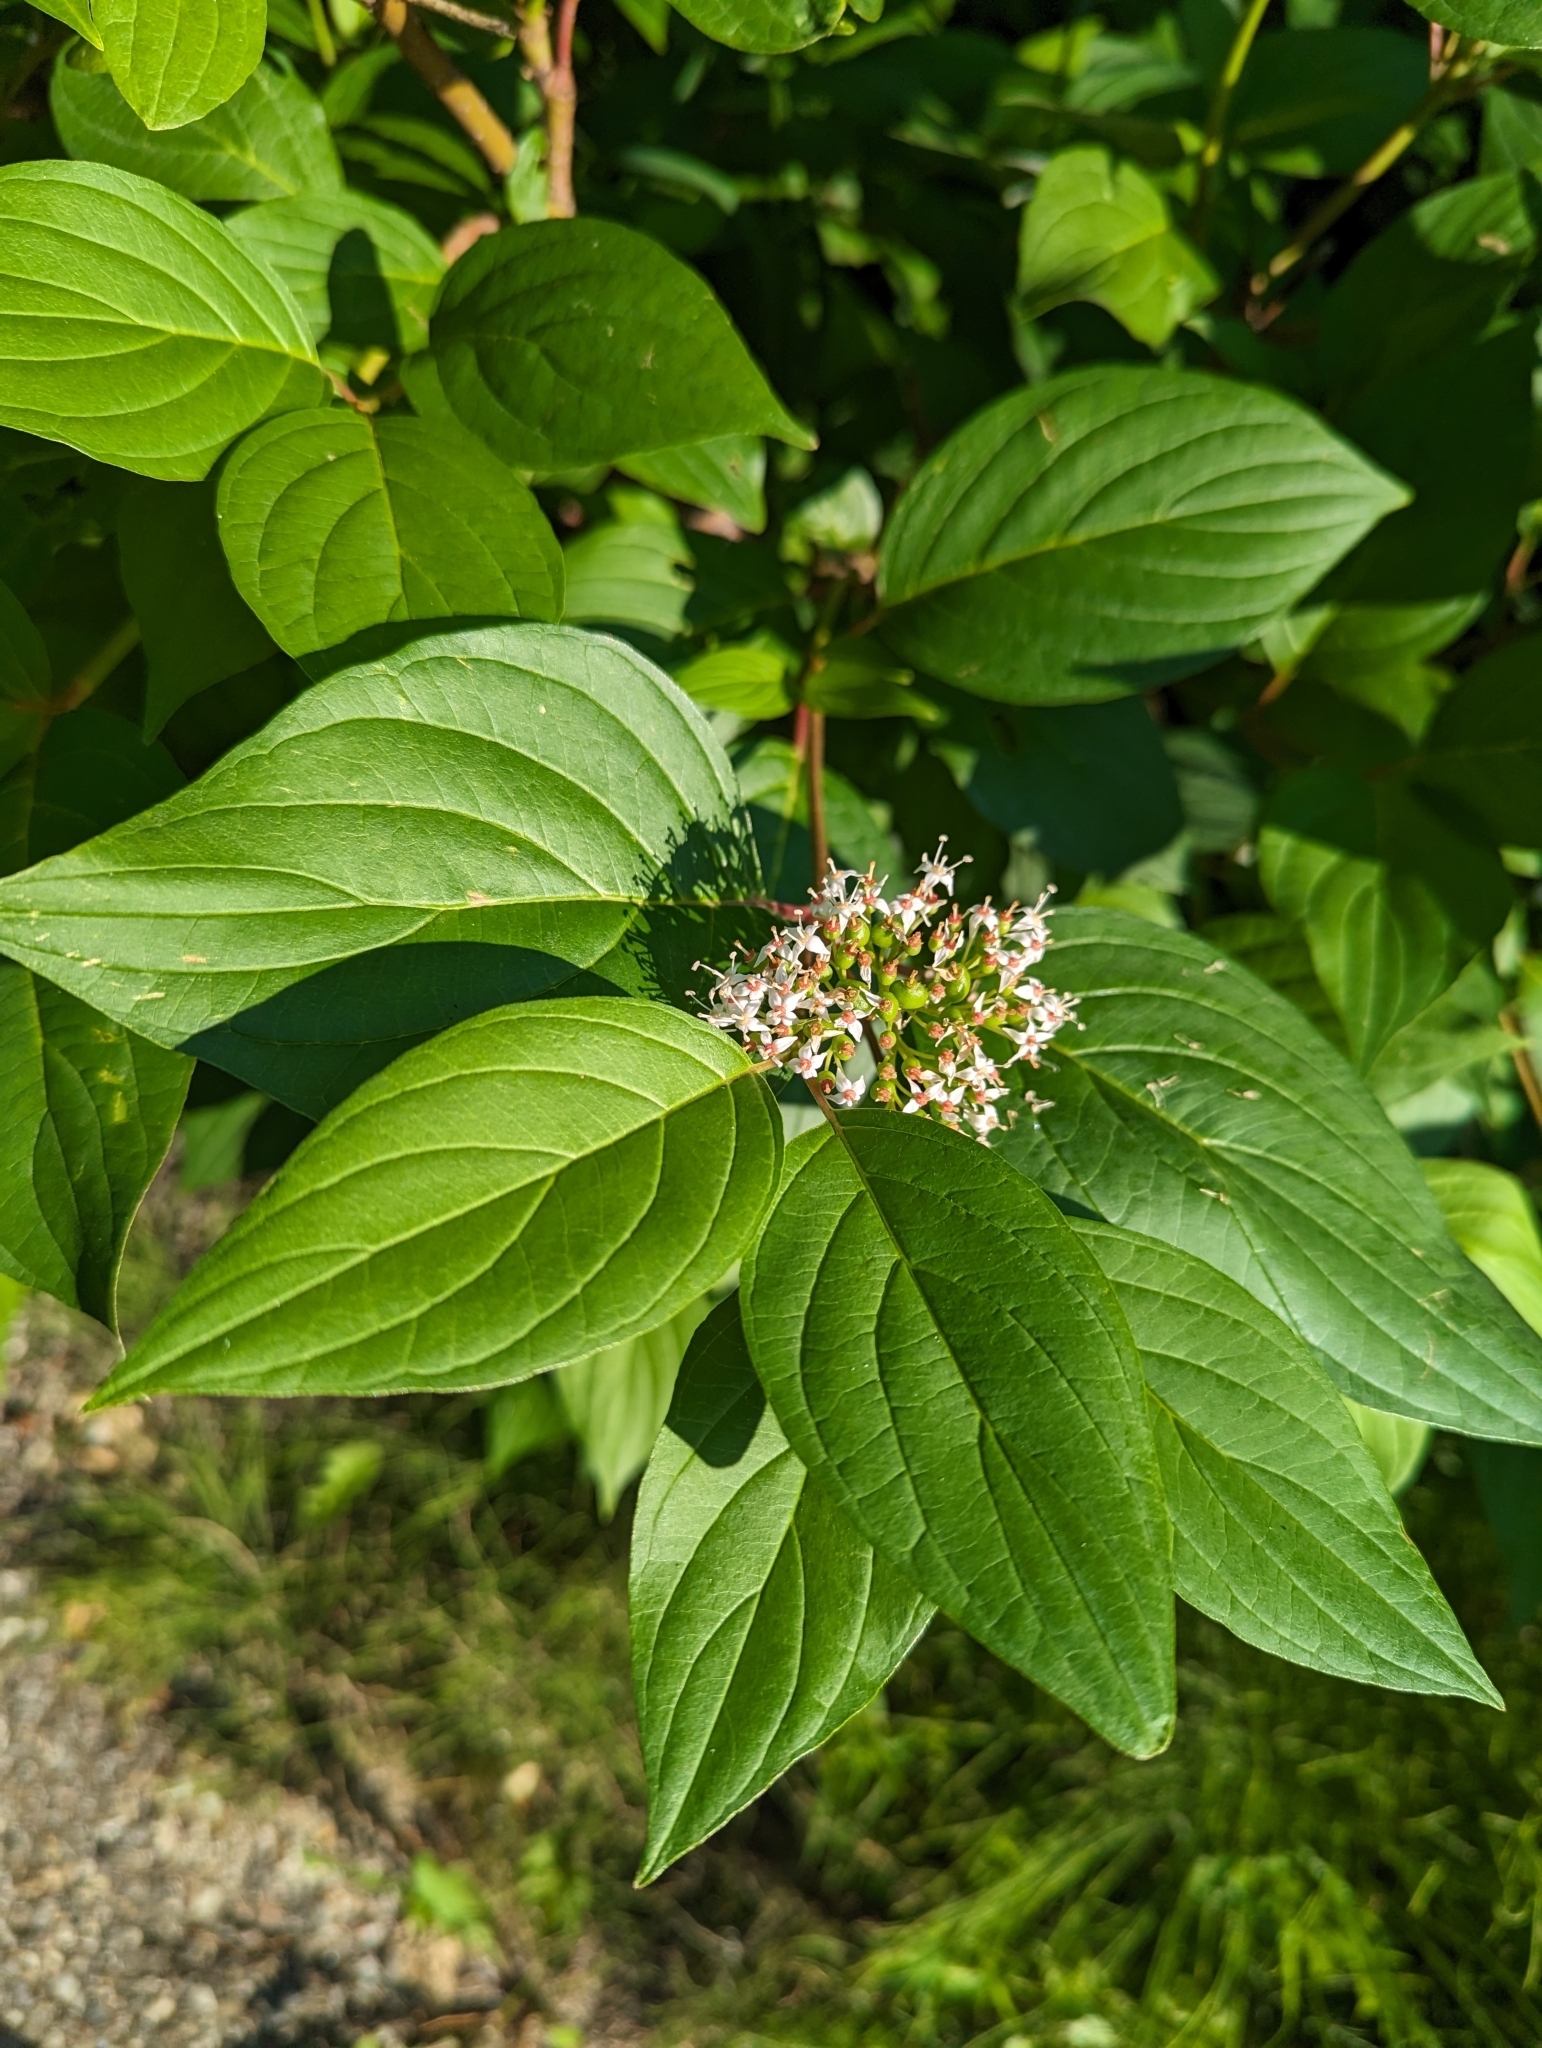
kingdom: Plantae
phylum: Tracheophyta
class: Magnoliopsida
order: Cornales
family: Cornaceae
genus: Cornus
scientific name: Cornus sericea
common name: Red-osier dogwood
